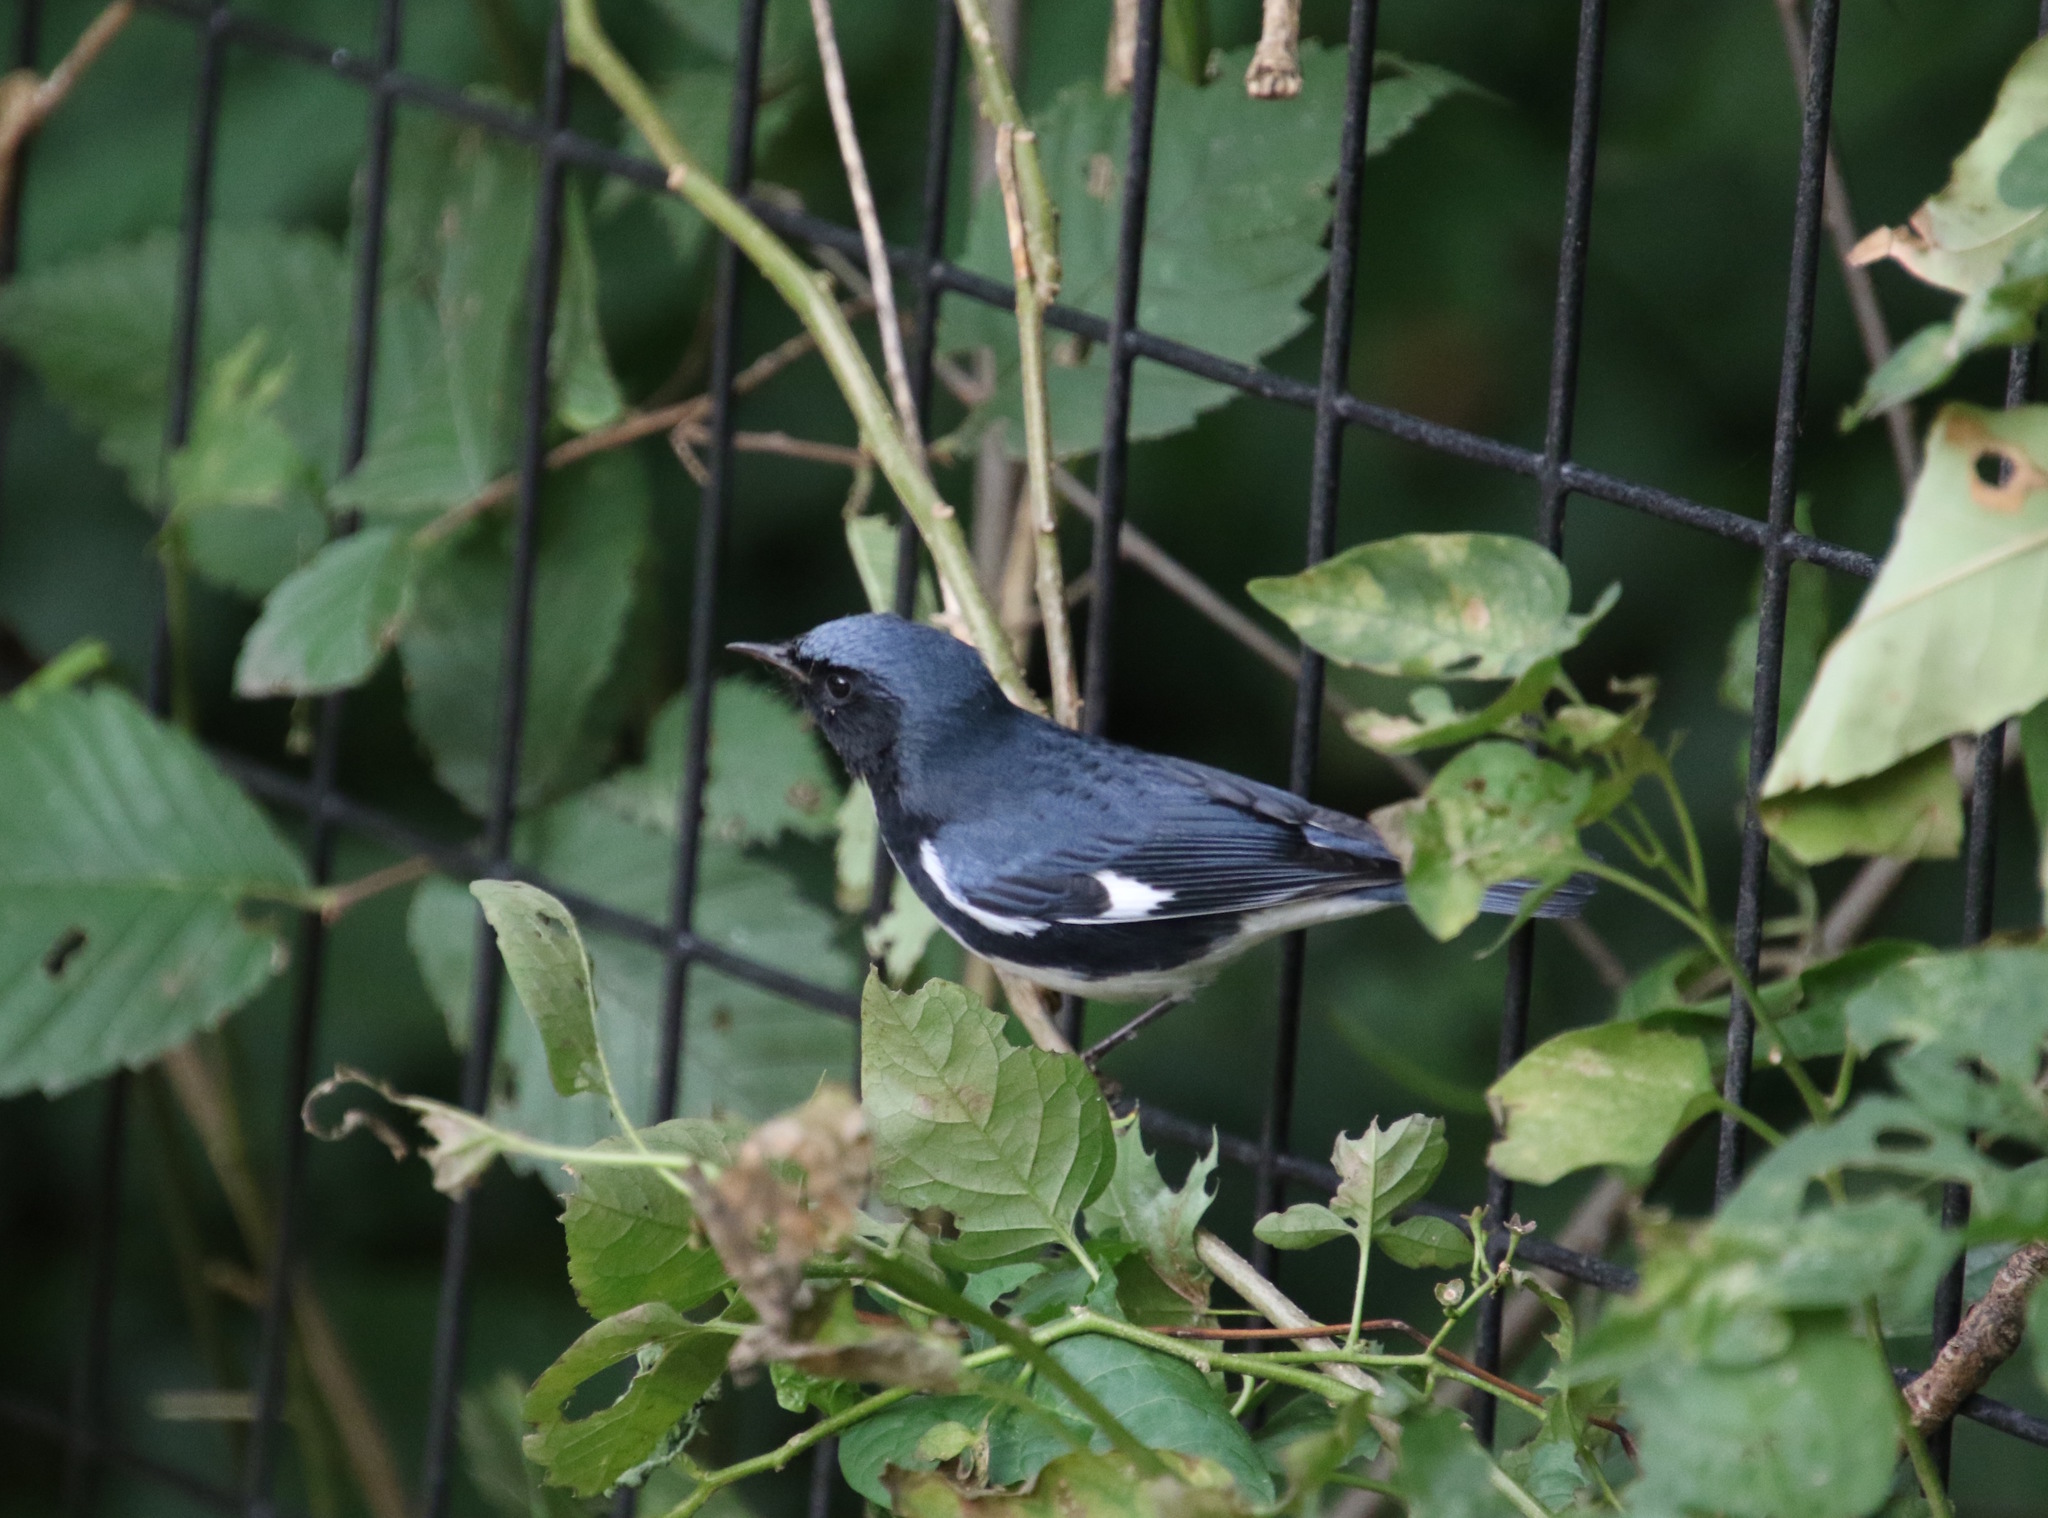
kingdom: Animalia
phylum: Chordata
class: Aves
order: Passeriformes
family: Parulidae
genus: Setophaga
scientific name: Setophaga caerulescens
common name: Black-throated blue warbler
